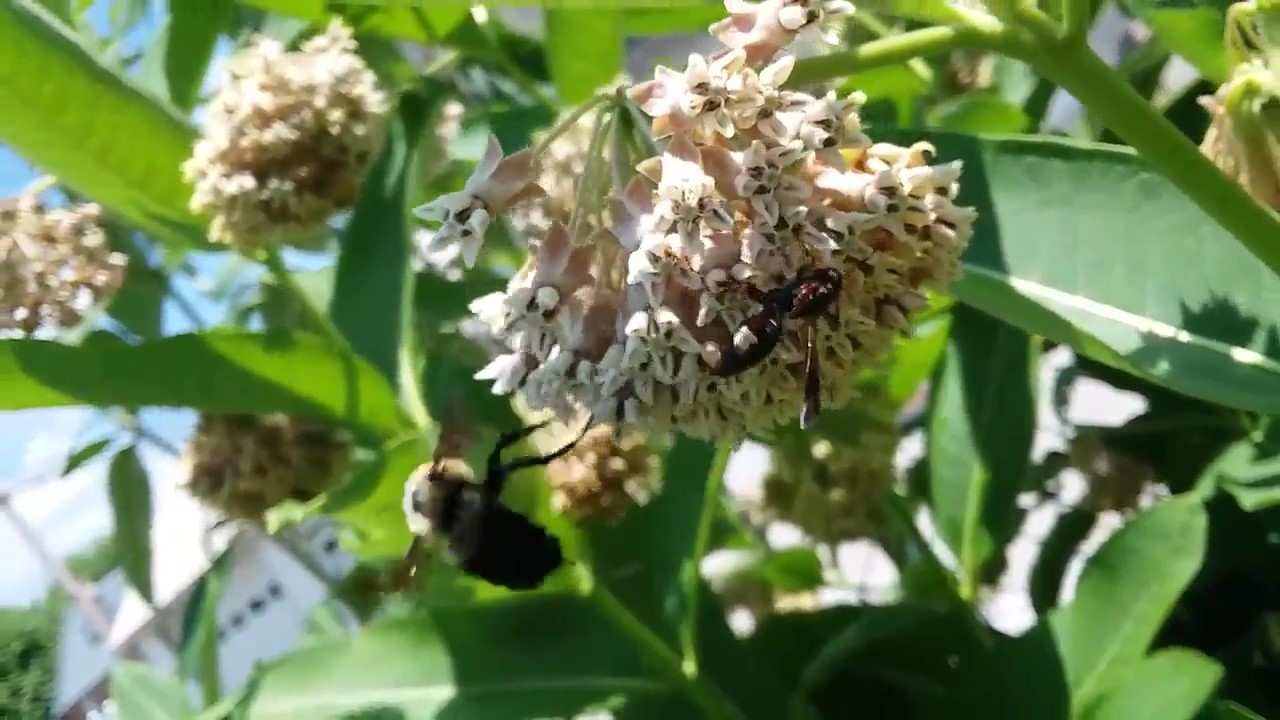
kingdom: Animalia
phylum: Arthropoda
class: Insecta
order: Hymenoptera
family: Apidae
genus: Bombus
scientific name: Bombus griseocollis
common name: Brown-belted bumble bee
